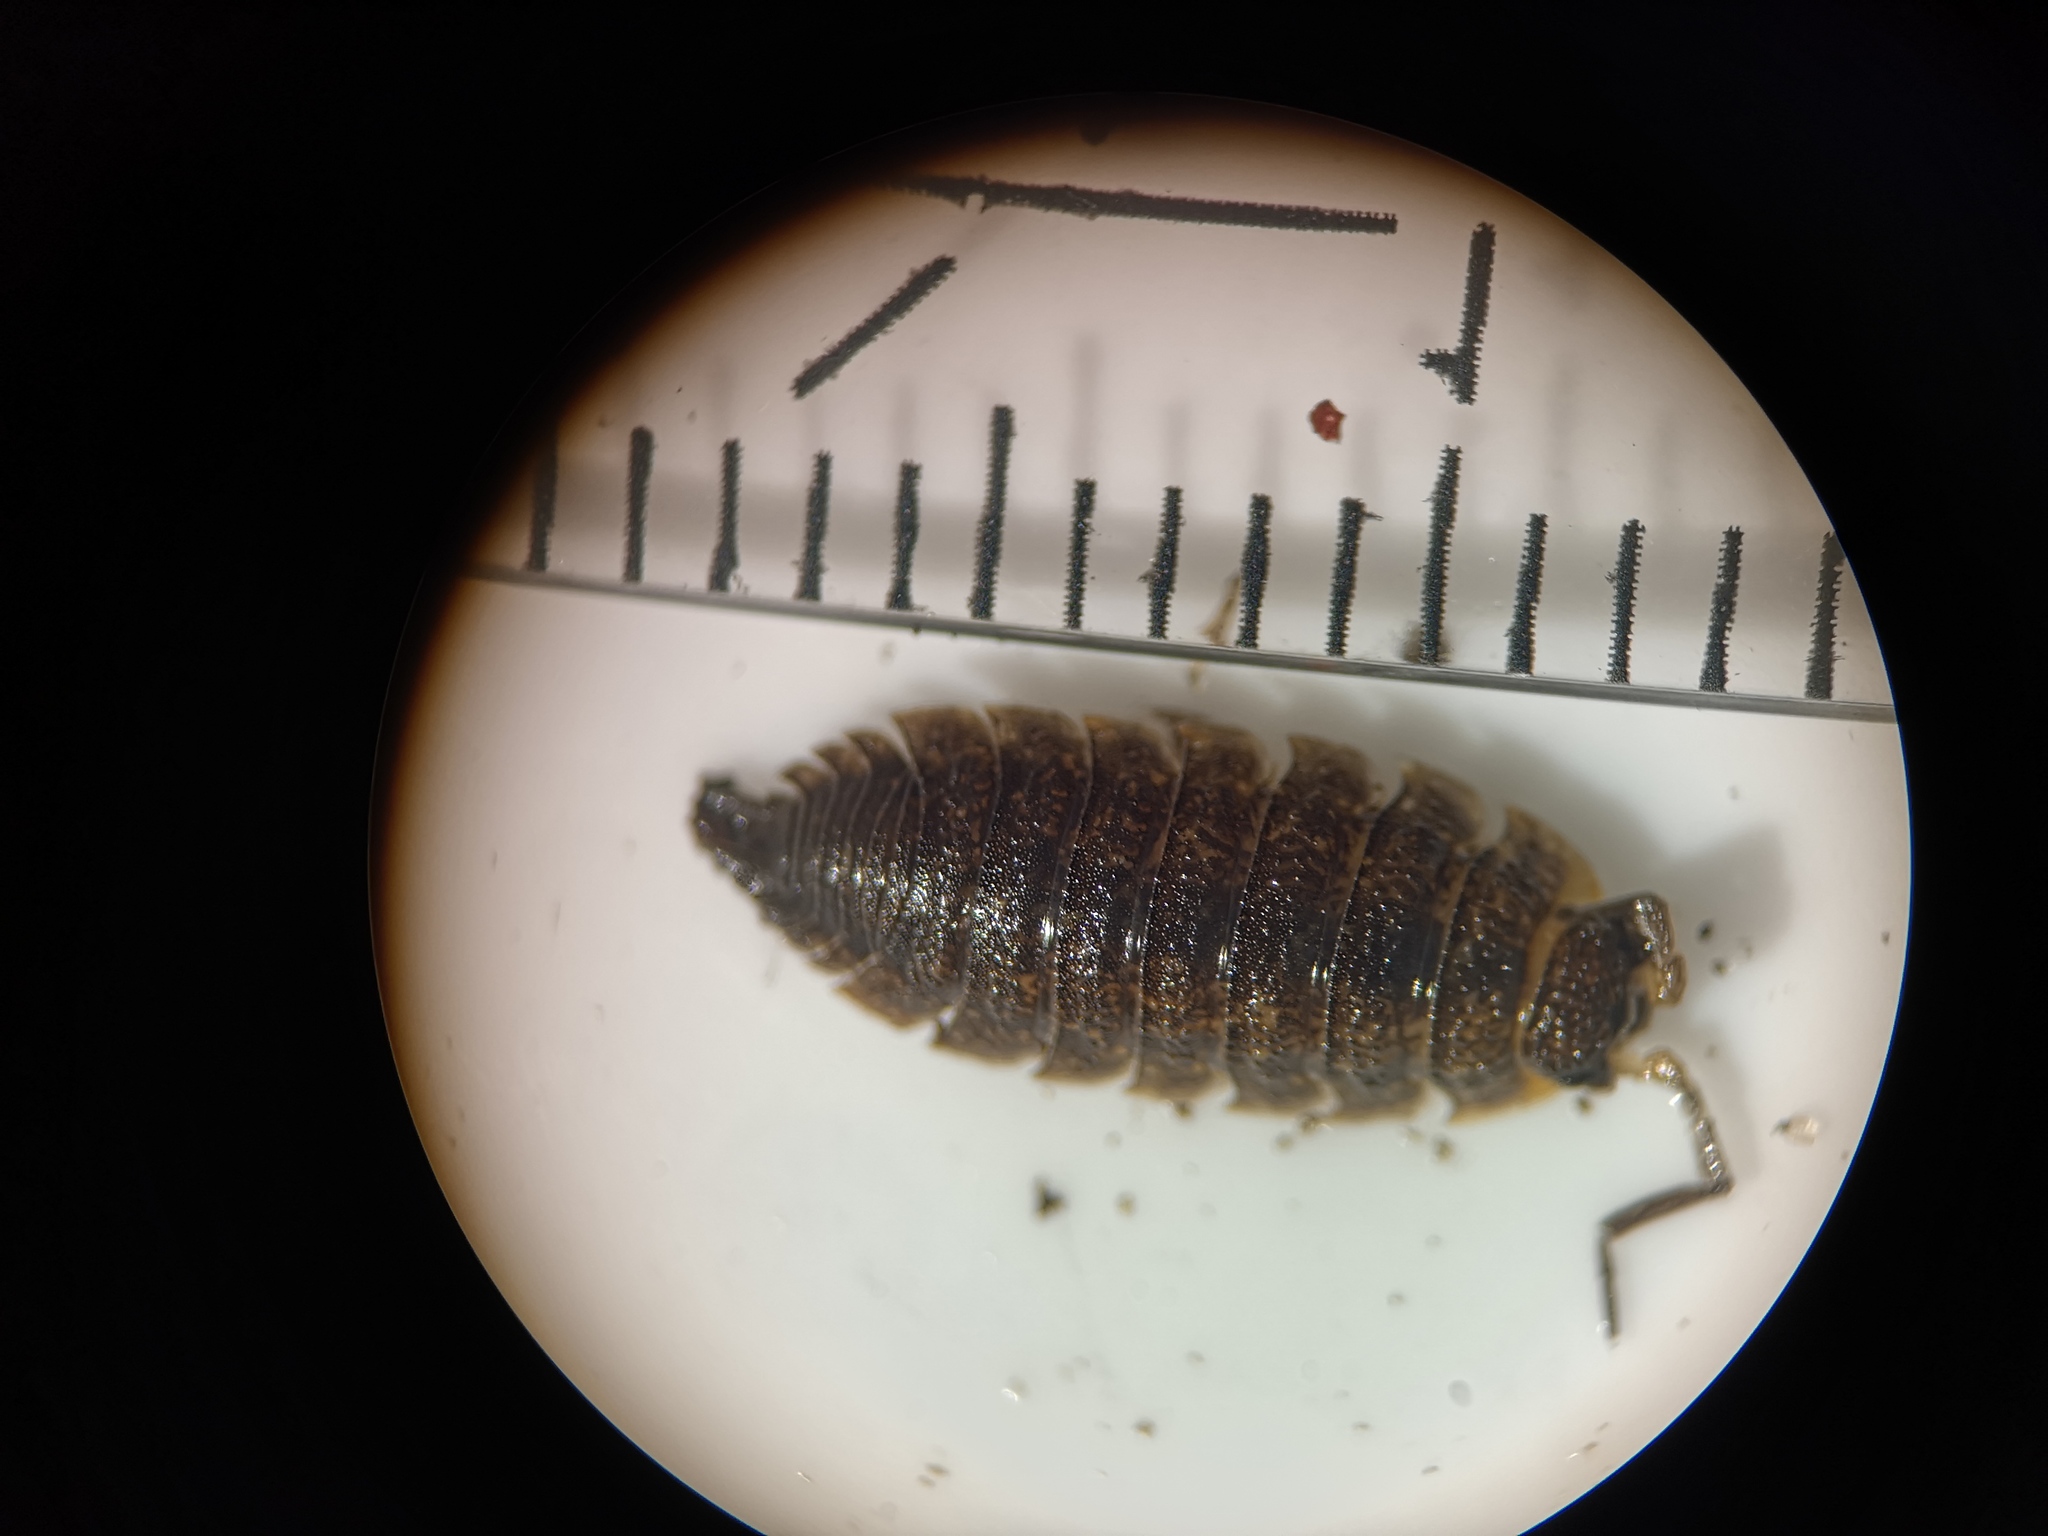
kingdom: Animalia
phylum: Arthropoda
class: Malacostraca
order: Isopoda
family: Porcellionidae
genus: Porcellio
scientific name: Porcellio scaber
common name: Common rough woodlouse
